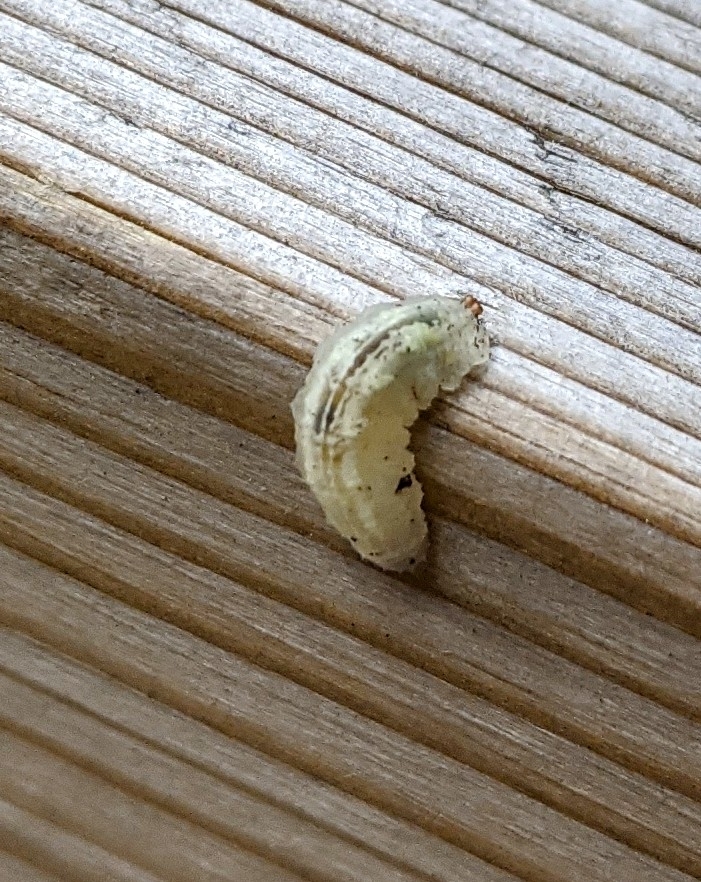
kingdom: Animalia
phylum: Arthropoda
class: Insecta
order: Diptera
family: Syrphidae
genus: Syrphus
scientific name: Syrphus
